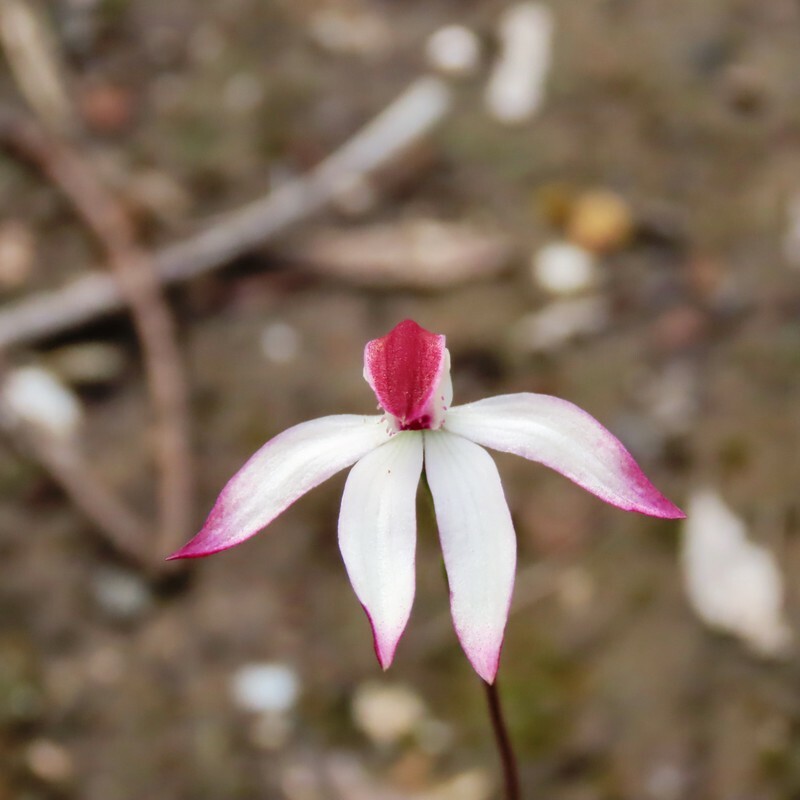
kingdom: Plantae
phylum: Tracheophyta
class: Liliopsida
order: Asparagales
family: Orchidaceae
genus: Caladenia
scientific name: Caladenia moschata
